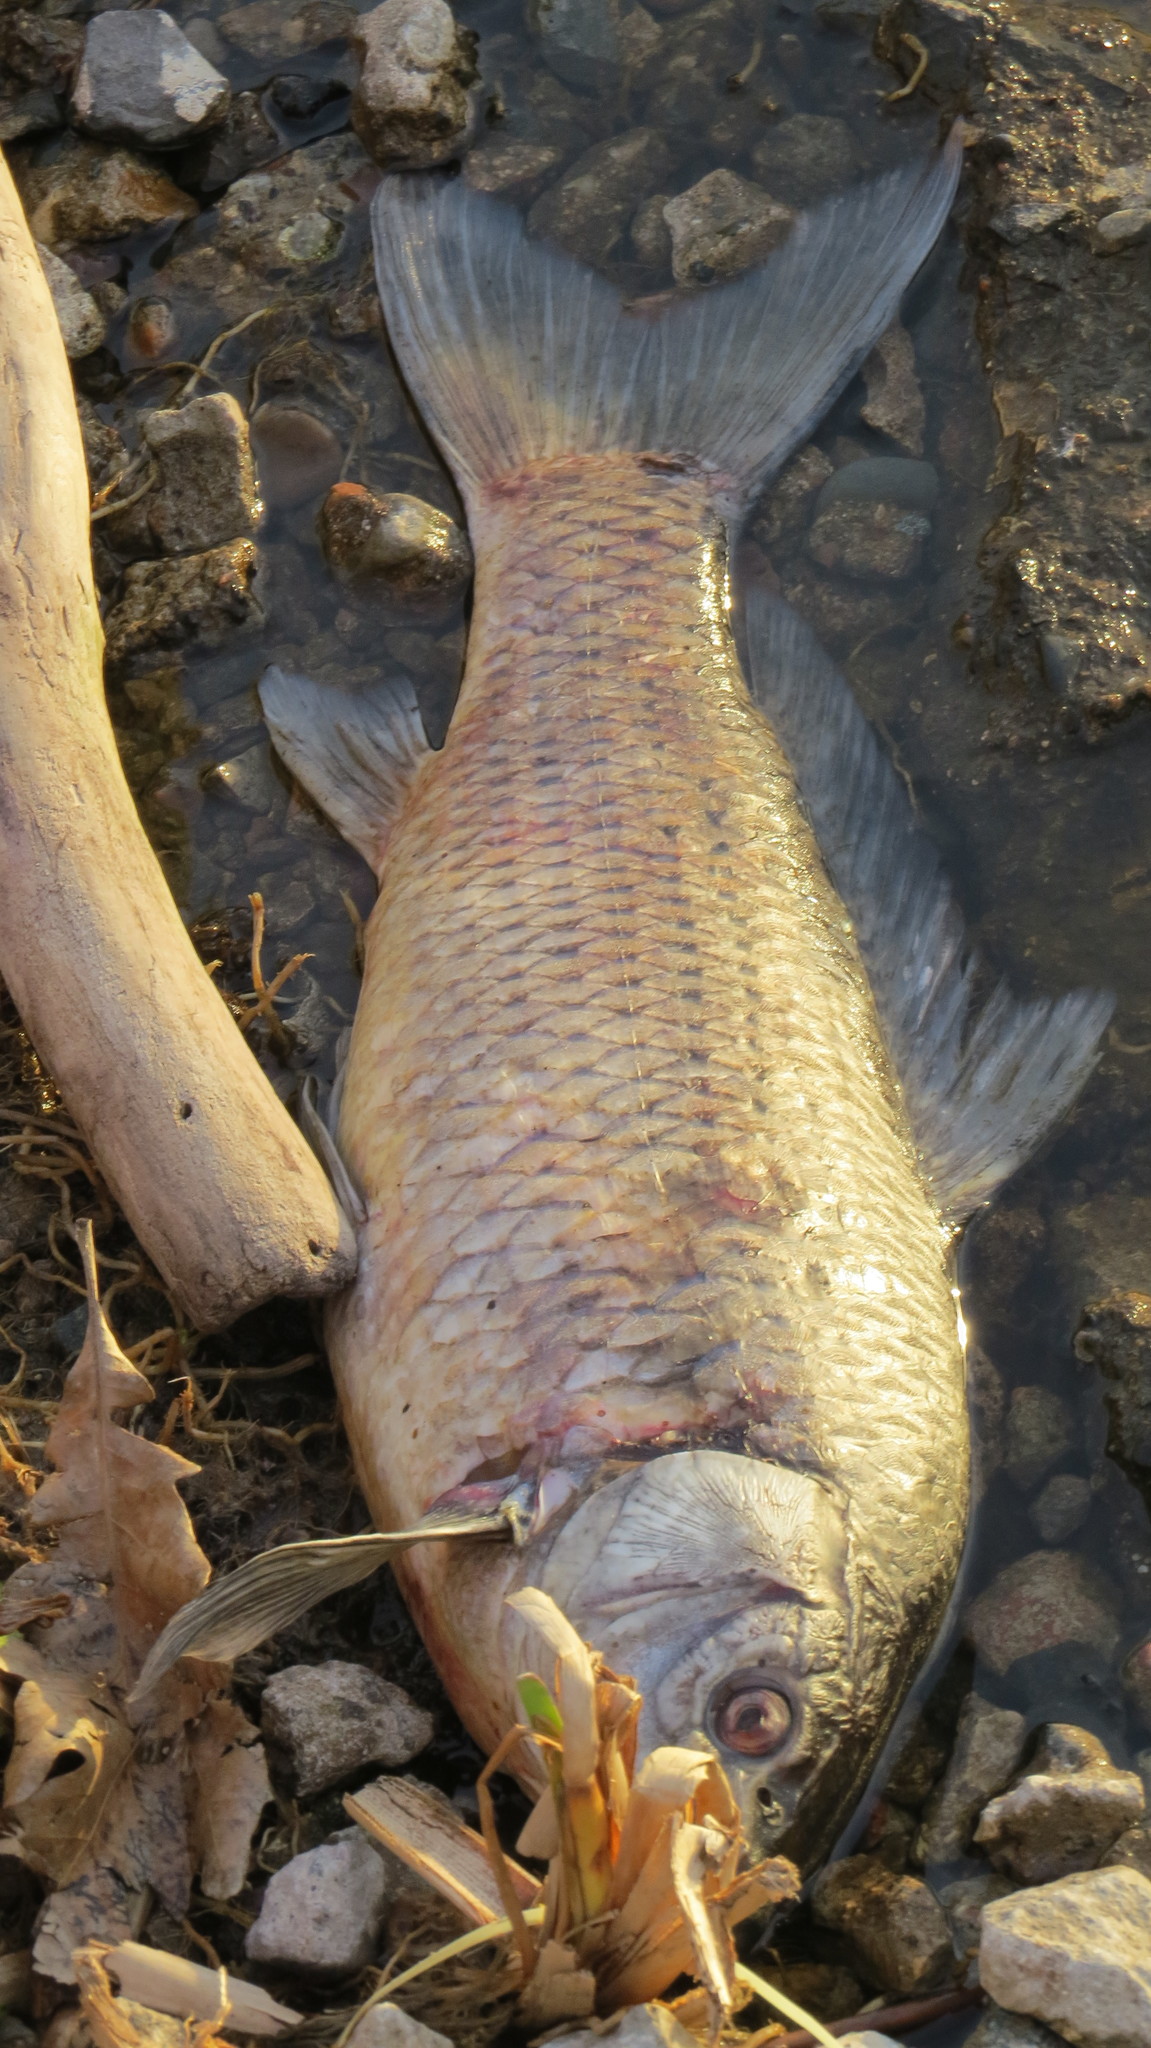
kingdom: Animalia
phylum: Chordata
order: Cypriniformes
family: Cyprinidae
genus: Cyprinus
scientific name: Cyprinus carpio
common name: Common carp
